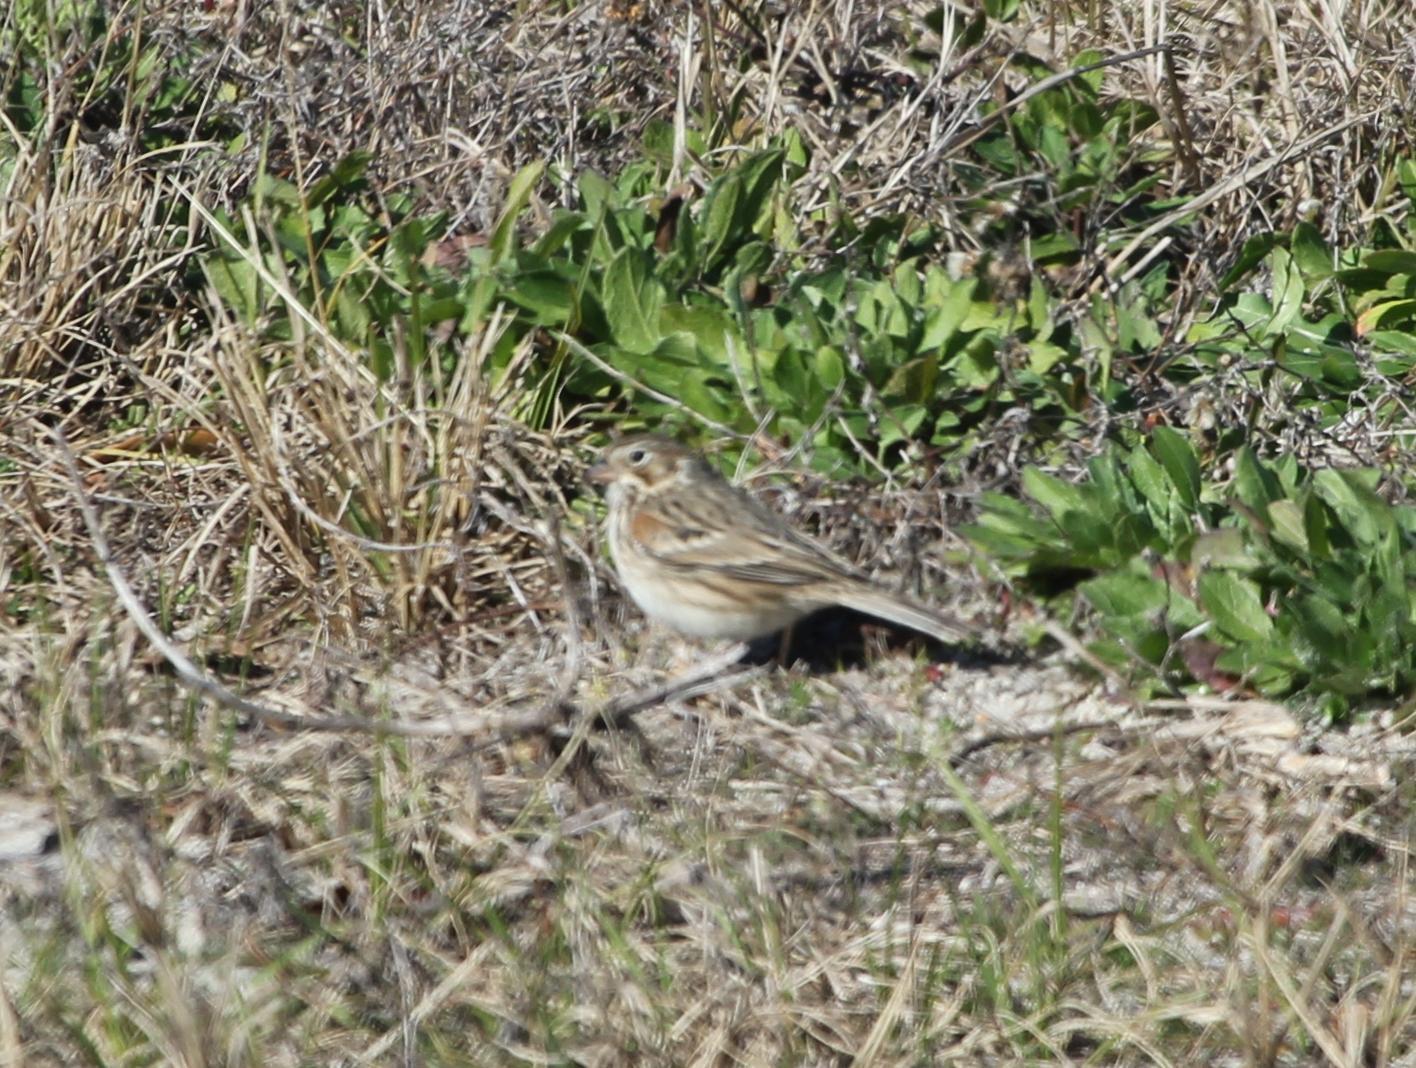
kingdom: Animalia
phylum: Chordata
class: Aves
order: Passeriformes
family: Passerellidae
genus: Pooecetes
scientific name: Pooecetes gramineus
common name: Vesper sparrow
